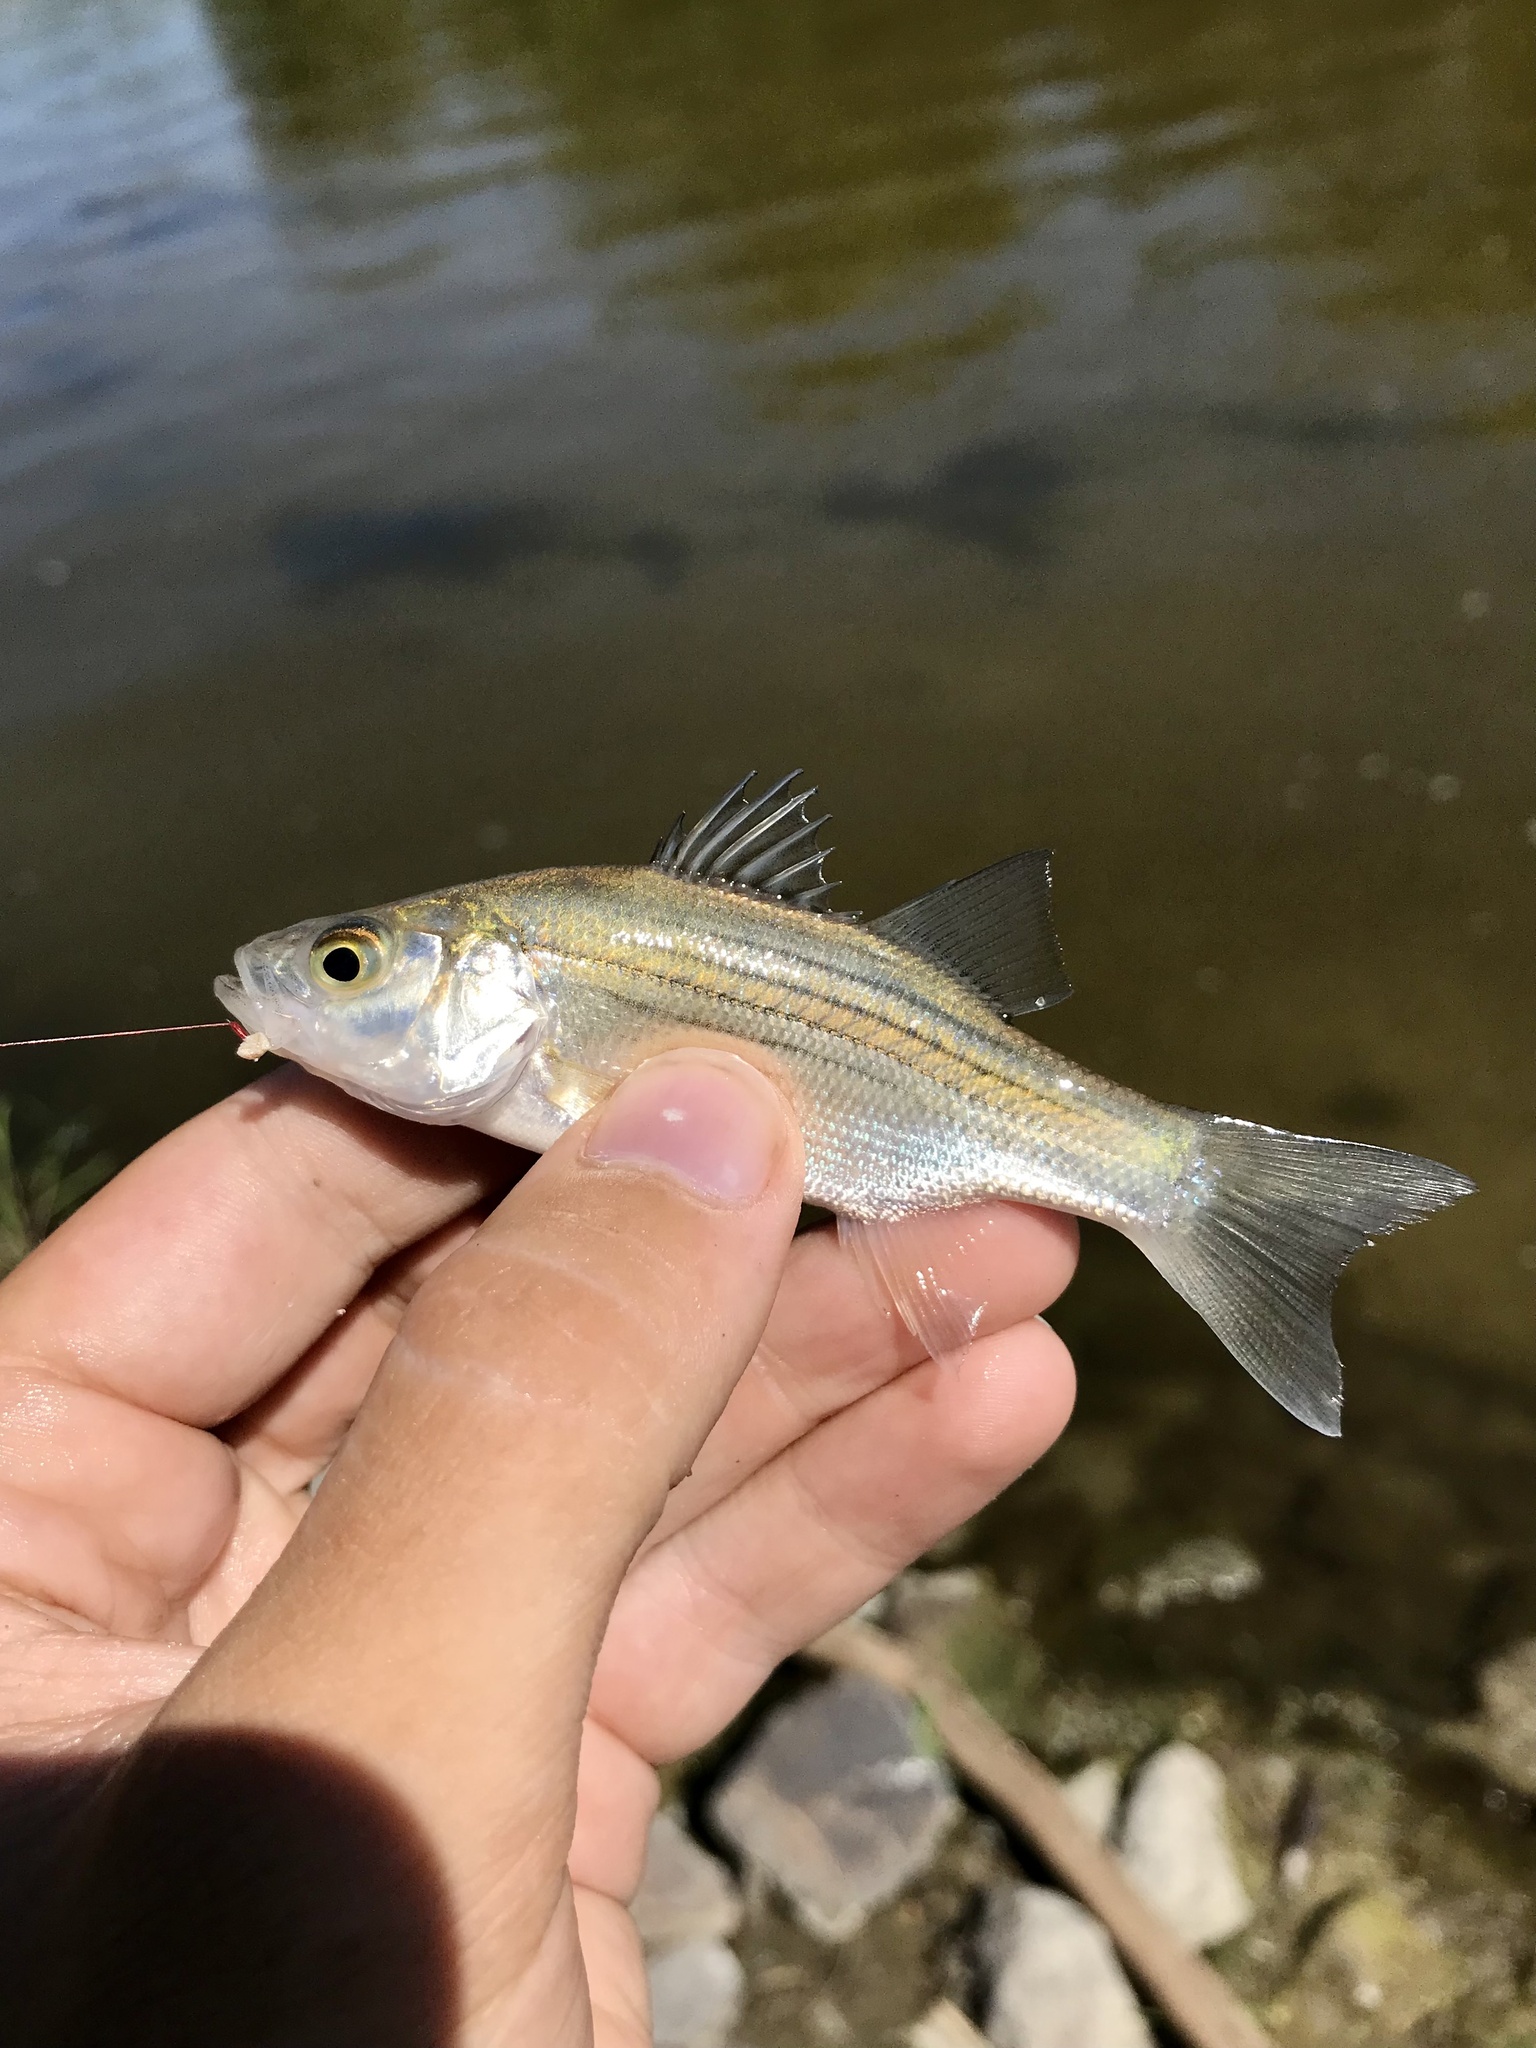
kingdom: Animalia
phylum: Chordata
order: Perciformes
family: Moronidae
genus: Morone
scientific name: Morone chrysops
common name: White bass
